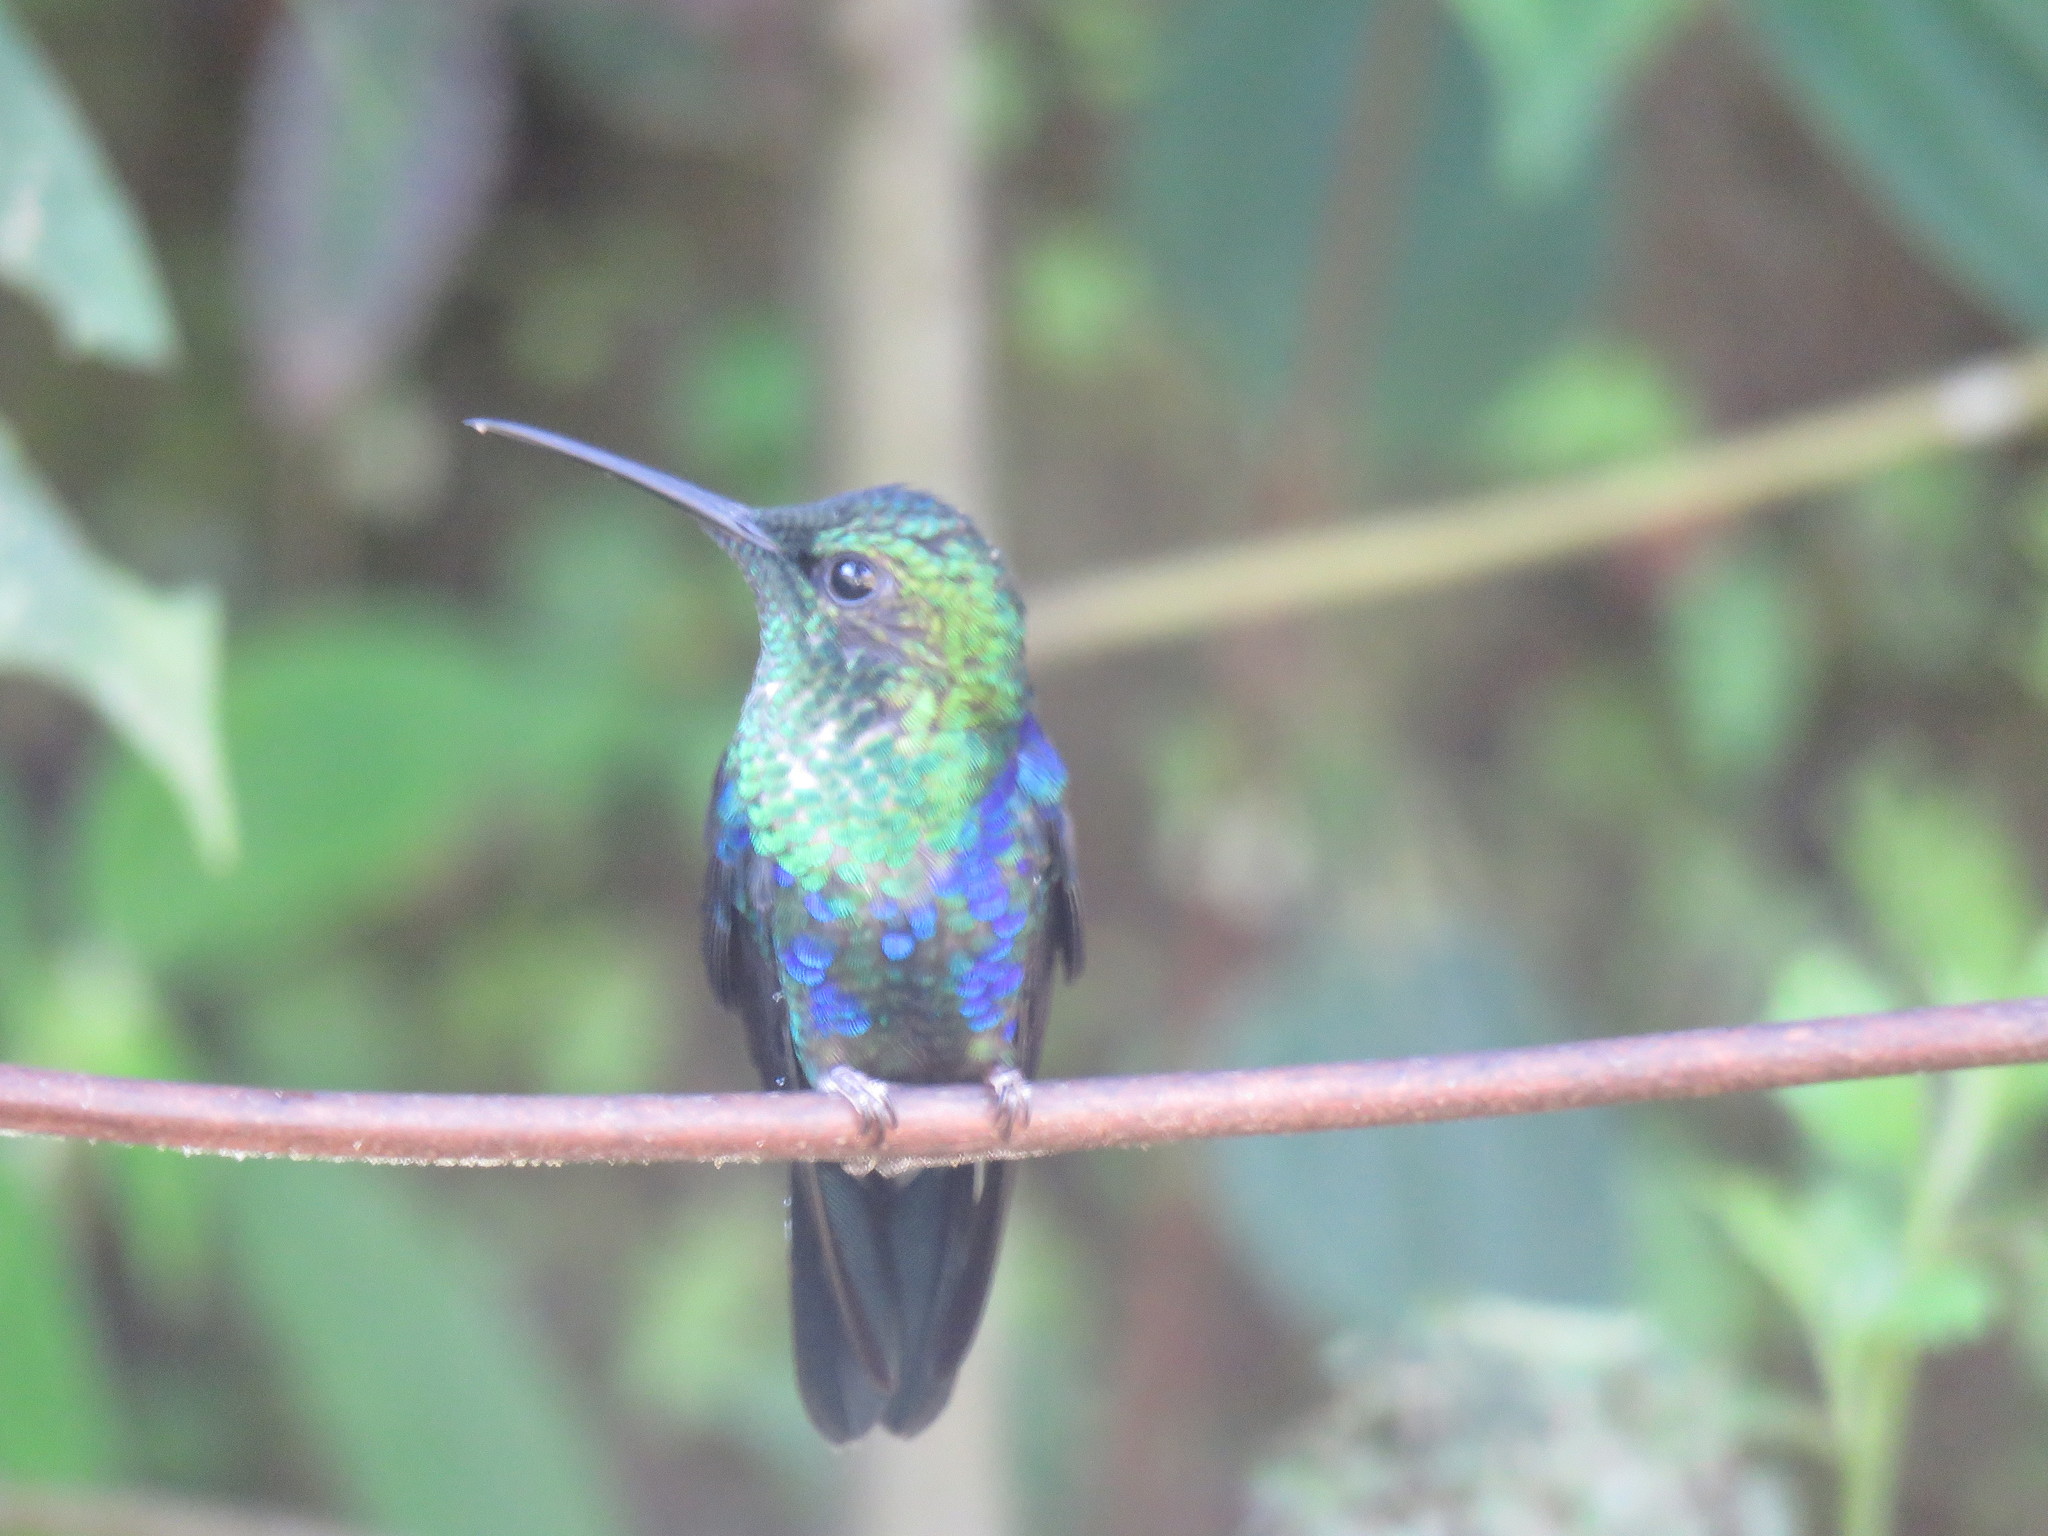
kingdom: Animalia
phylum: Chordata
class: Aves
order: Apodiformes
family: Trochilidae
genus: Thalurania
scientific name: Thalurania colombica
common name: Crowned woodnymph
